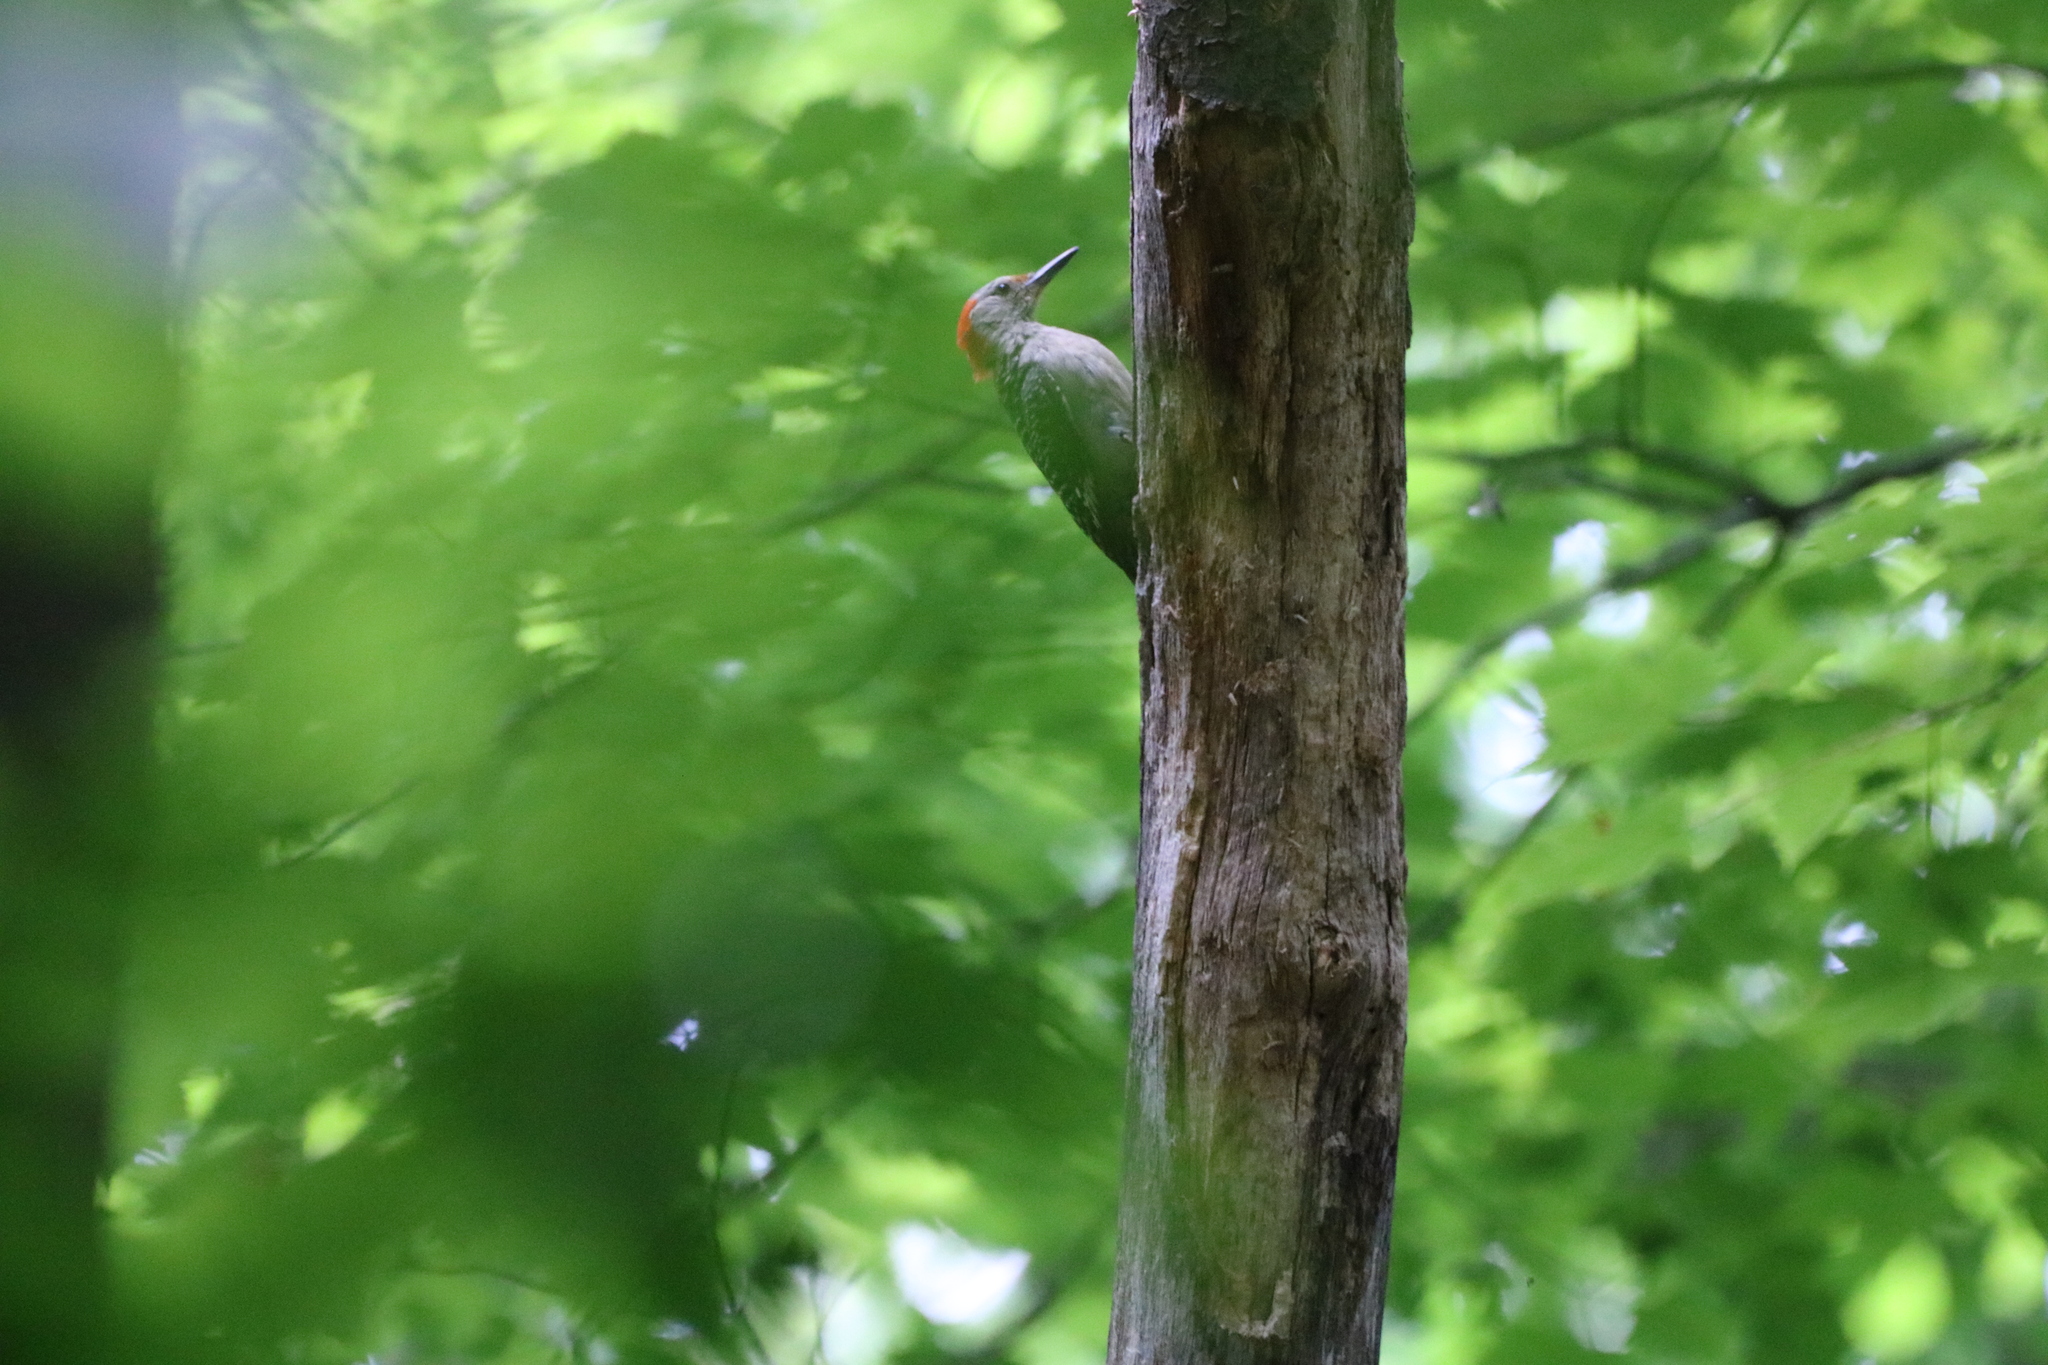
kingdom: Animalia
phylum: Chordata
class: Aves
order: Piciformes
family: Picidae
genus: Melanerpes
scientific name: Melanerpes carolinus
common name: Red-bellied woodpecker
